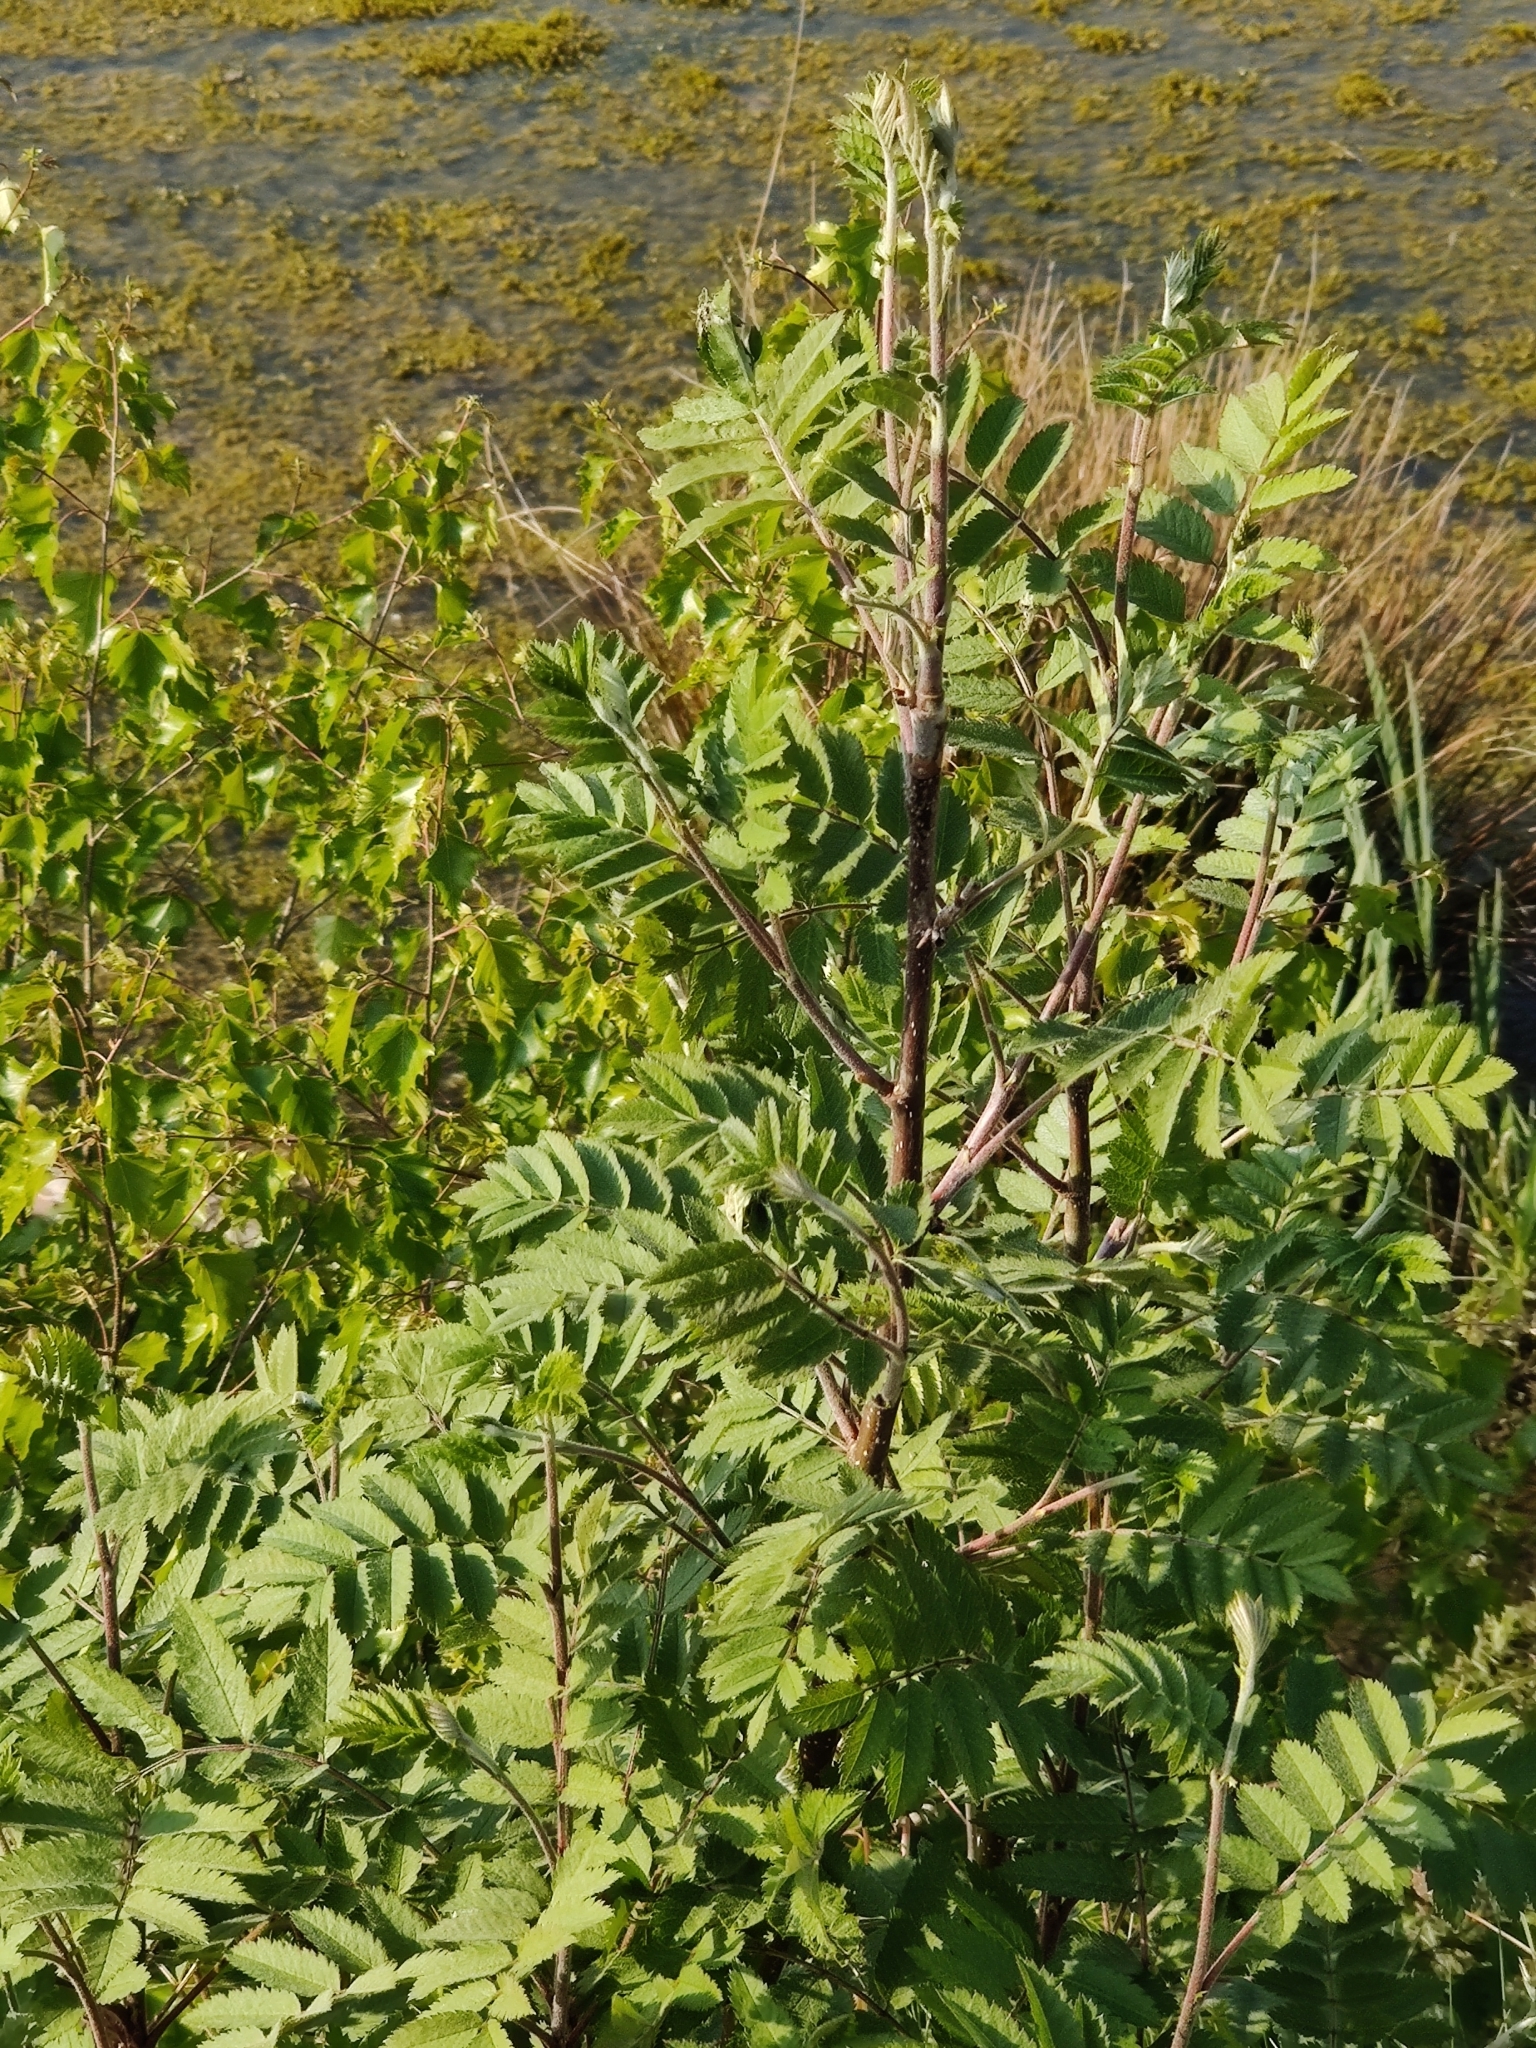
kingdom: Plantae
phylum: Tracheophyta
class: Magnoliopsida
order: Rosales
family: Rosaceae
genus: Sorbus
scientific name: Sorbus aucuparia
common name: Rowan
